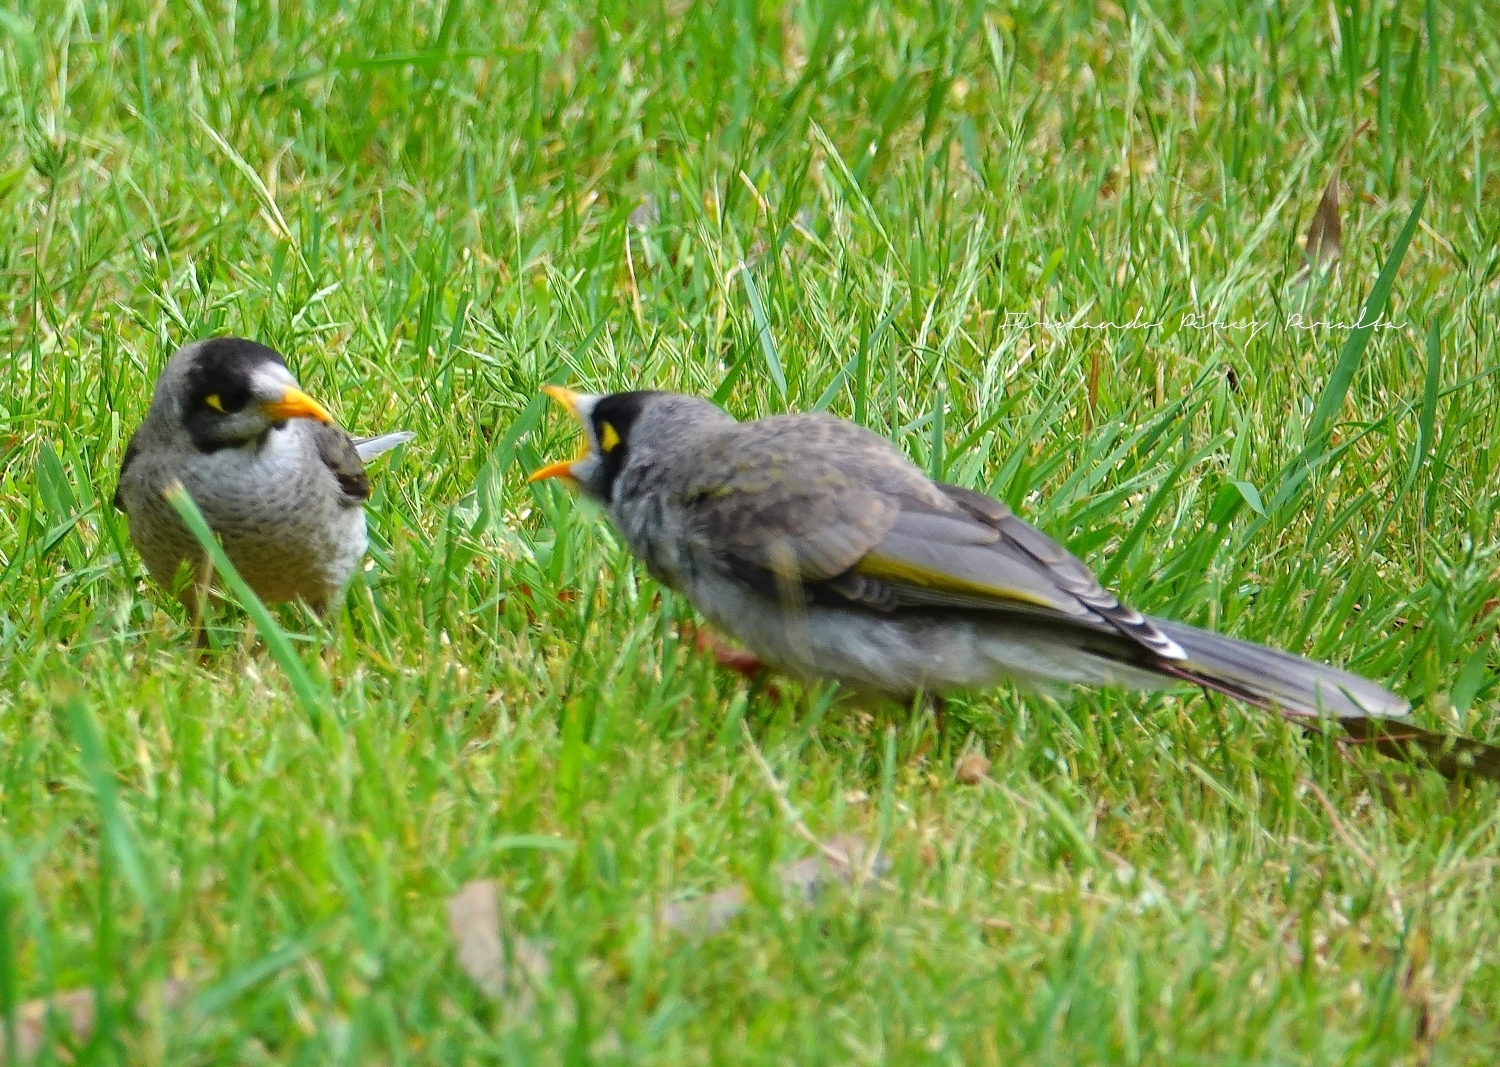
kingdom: Animalia
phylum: Chordata
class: Aves
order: Passeriformes
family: Meliphagidae
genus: Manorina
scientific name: Manorina melanocephala
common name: Noisy miner
